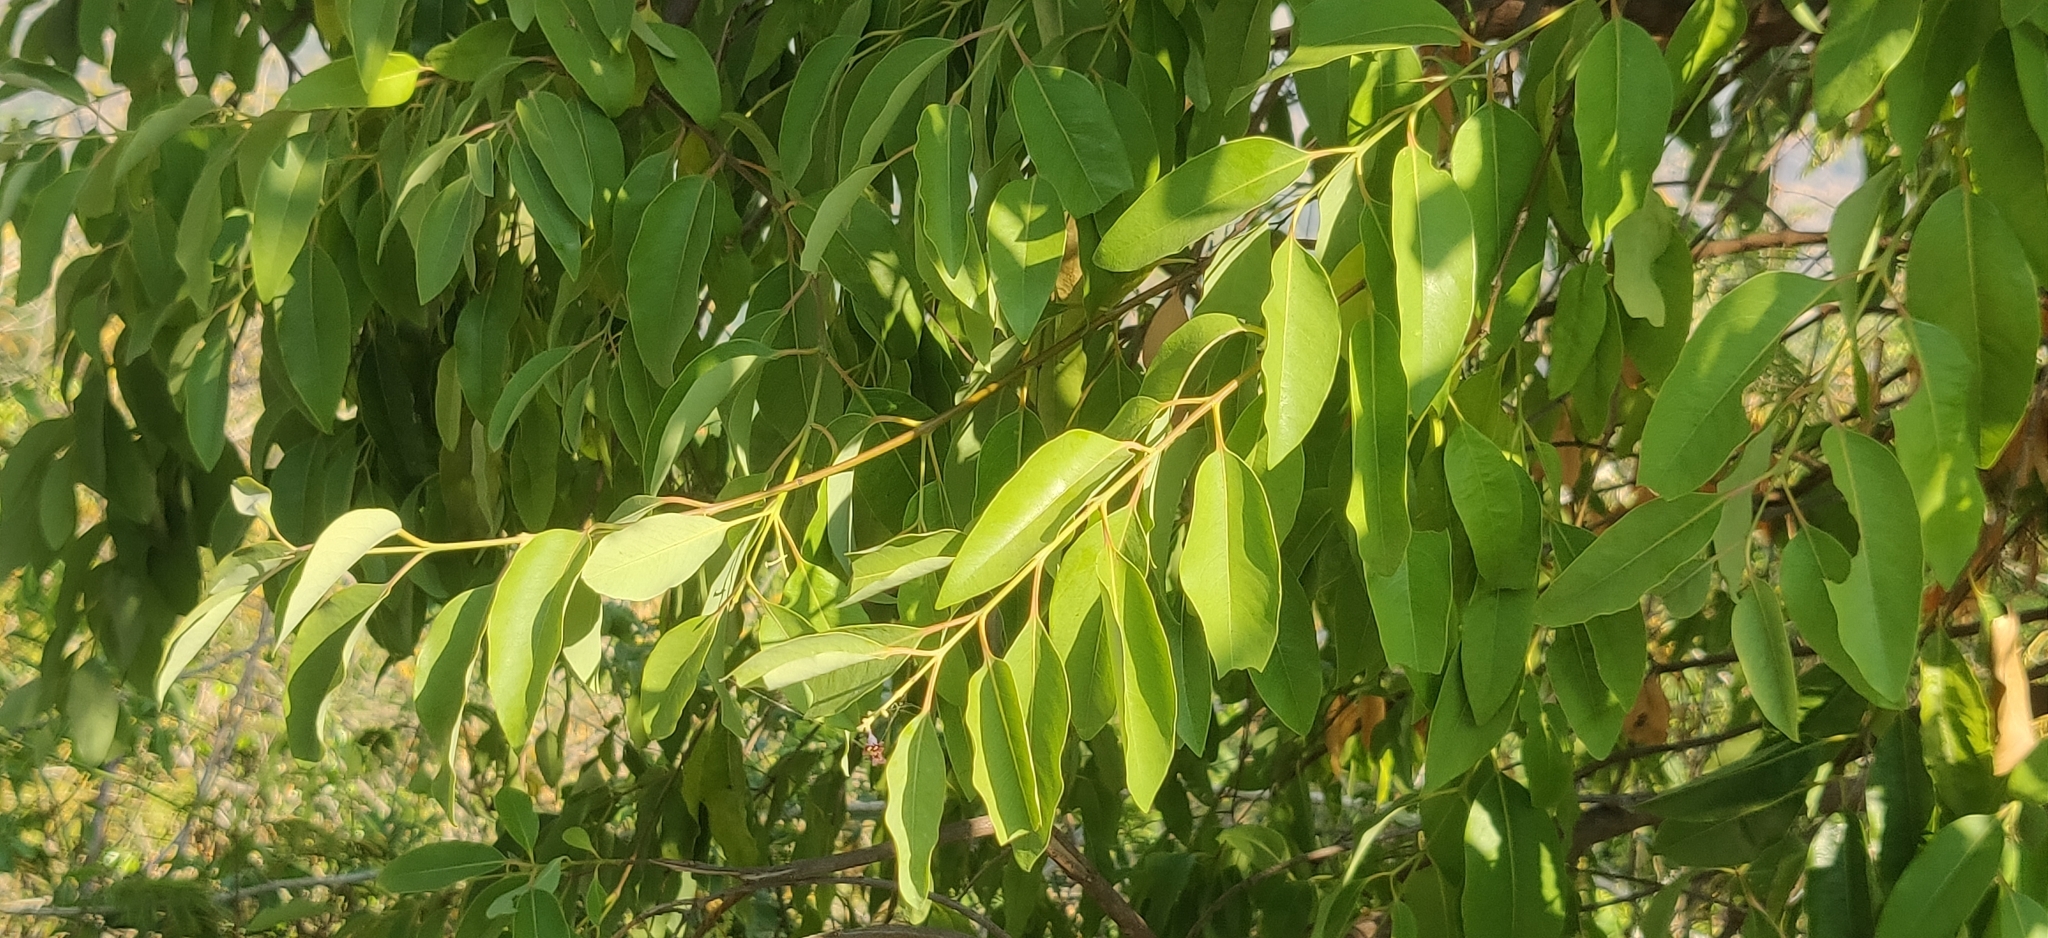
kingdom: Plantae
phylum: Tracheophyta
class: Magnoliopsida
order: Santalales
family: Santalaceae
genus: Santalum
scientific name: Santalum album
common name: Indian sandalwood
